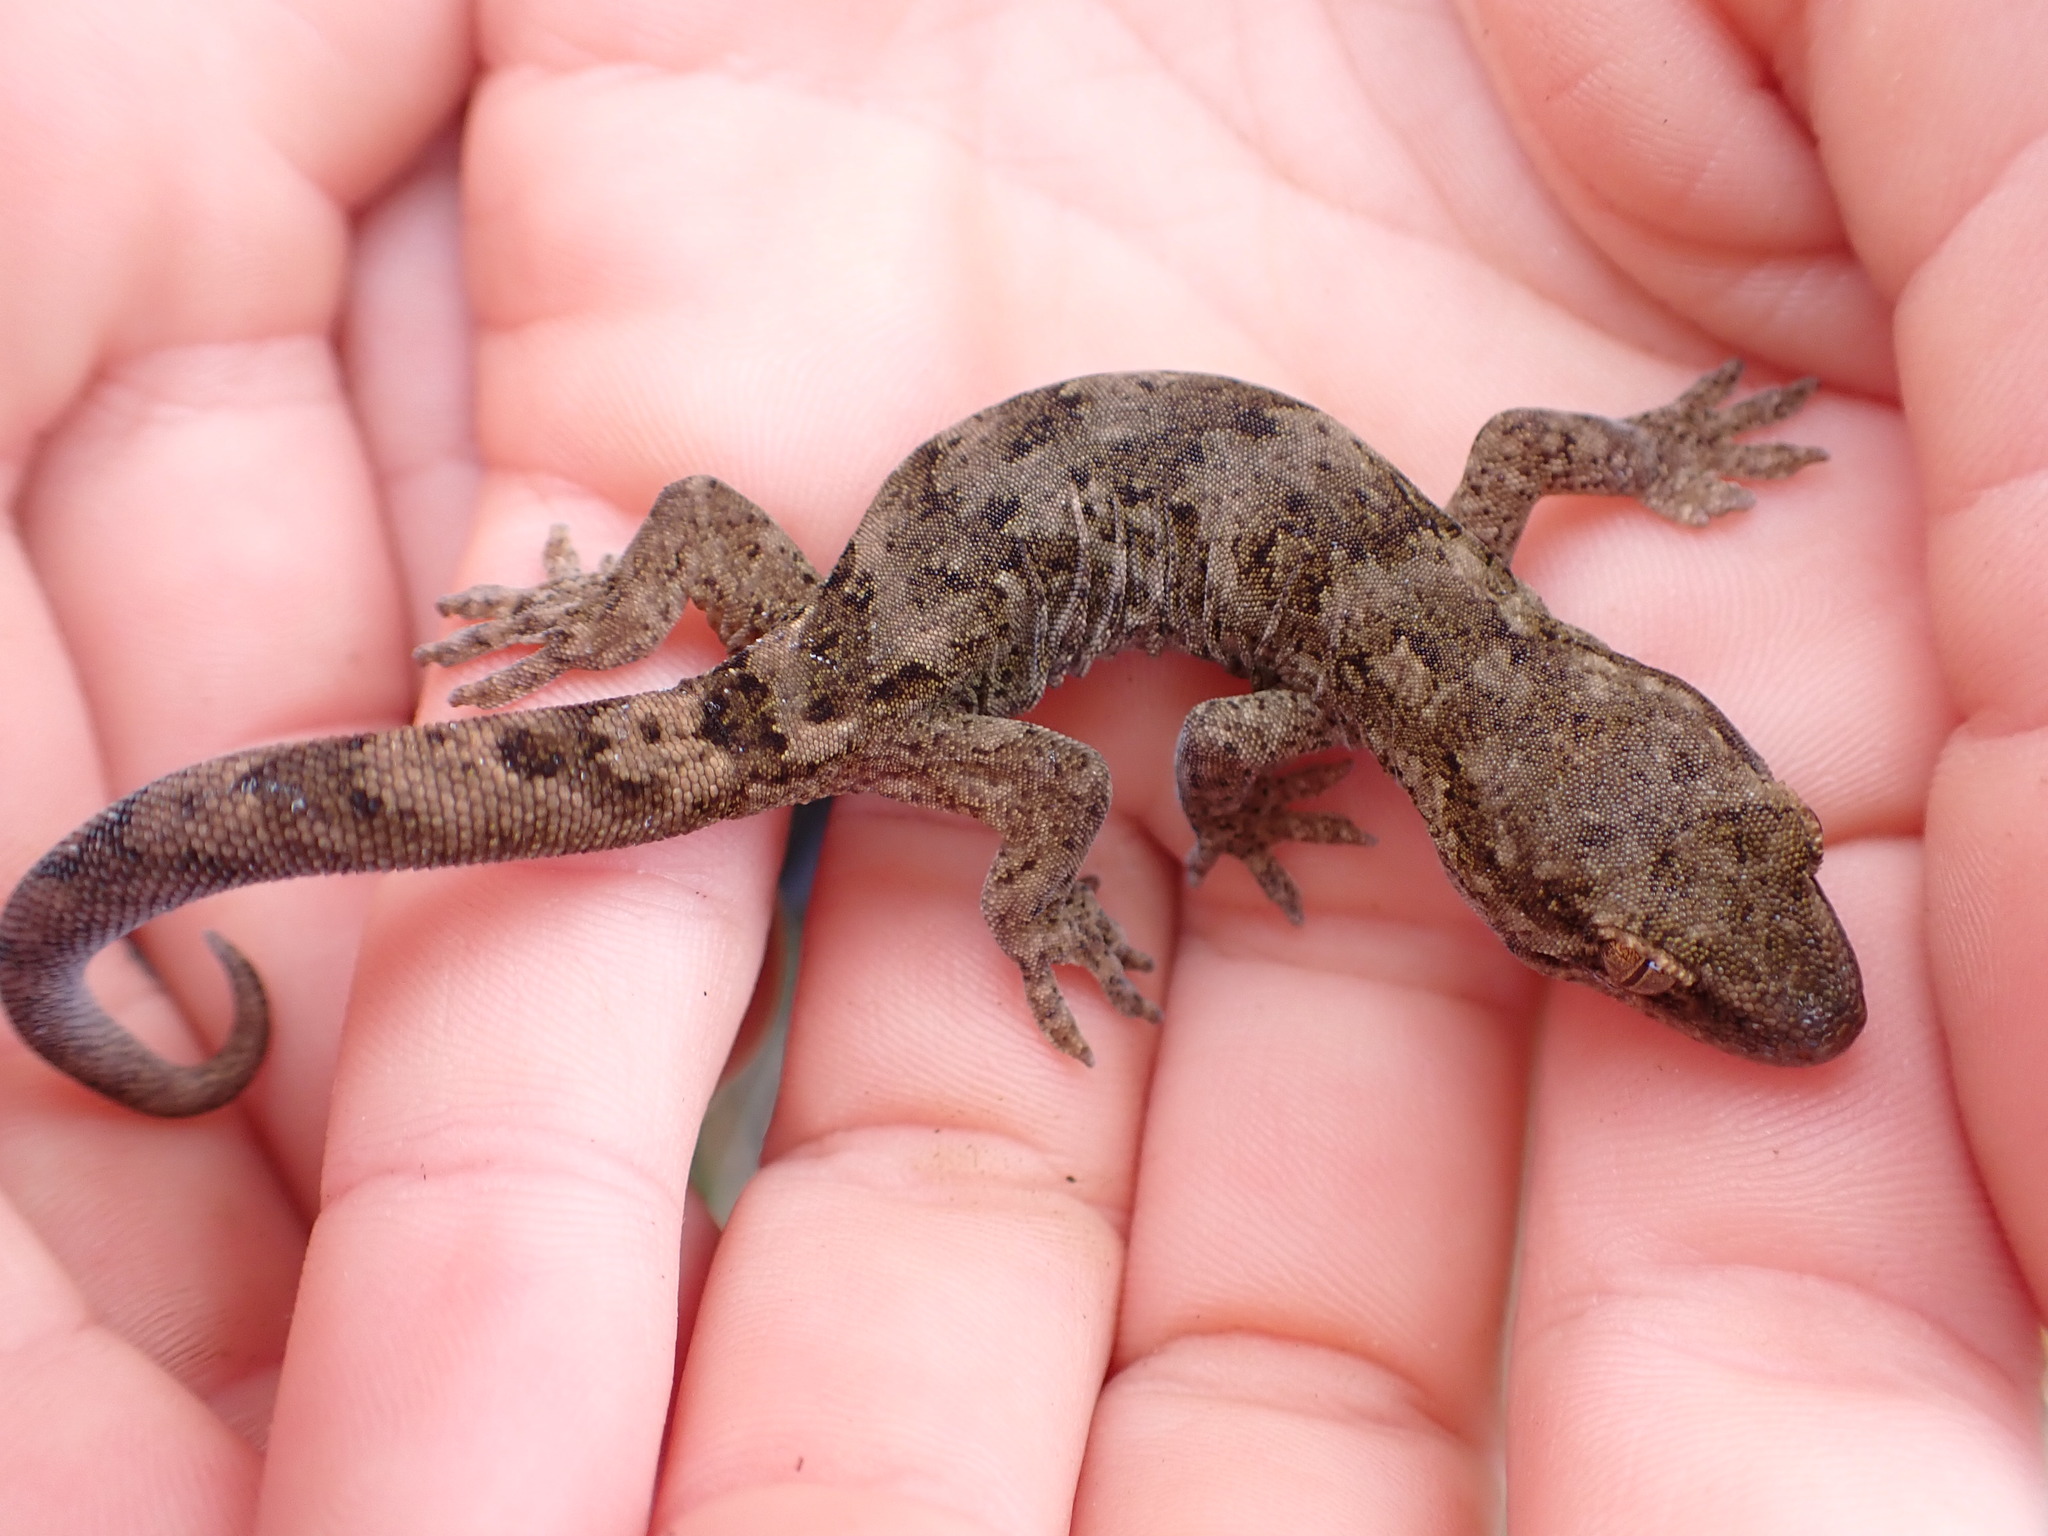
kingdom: Animalia
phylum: Chordata
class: Squamata
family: Diplodactylidae
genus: Woodworthia
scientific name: Woodworthia brunnea
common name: Canterbury gecko
